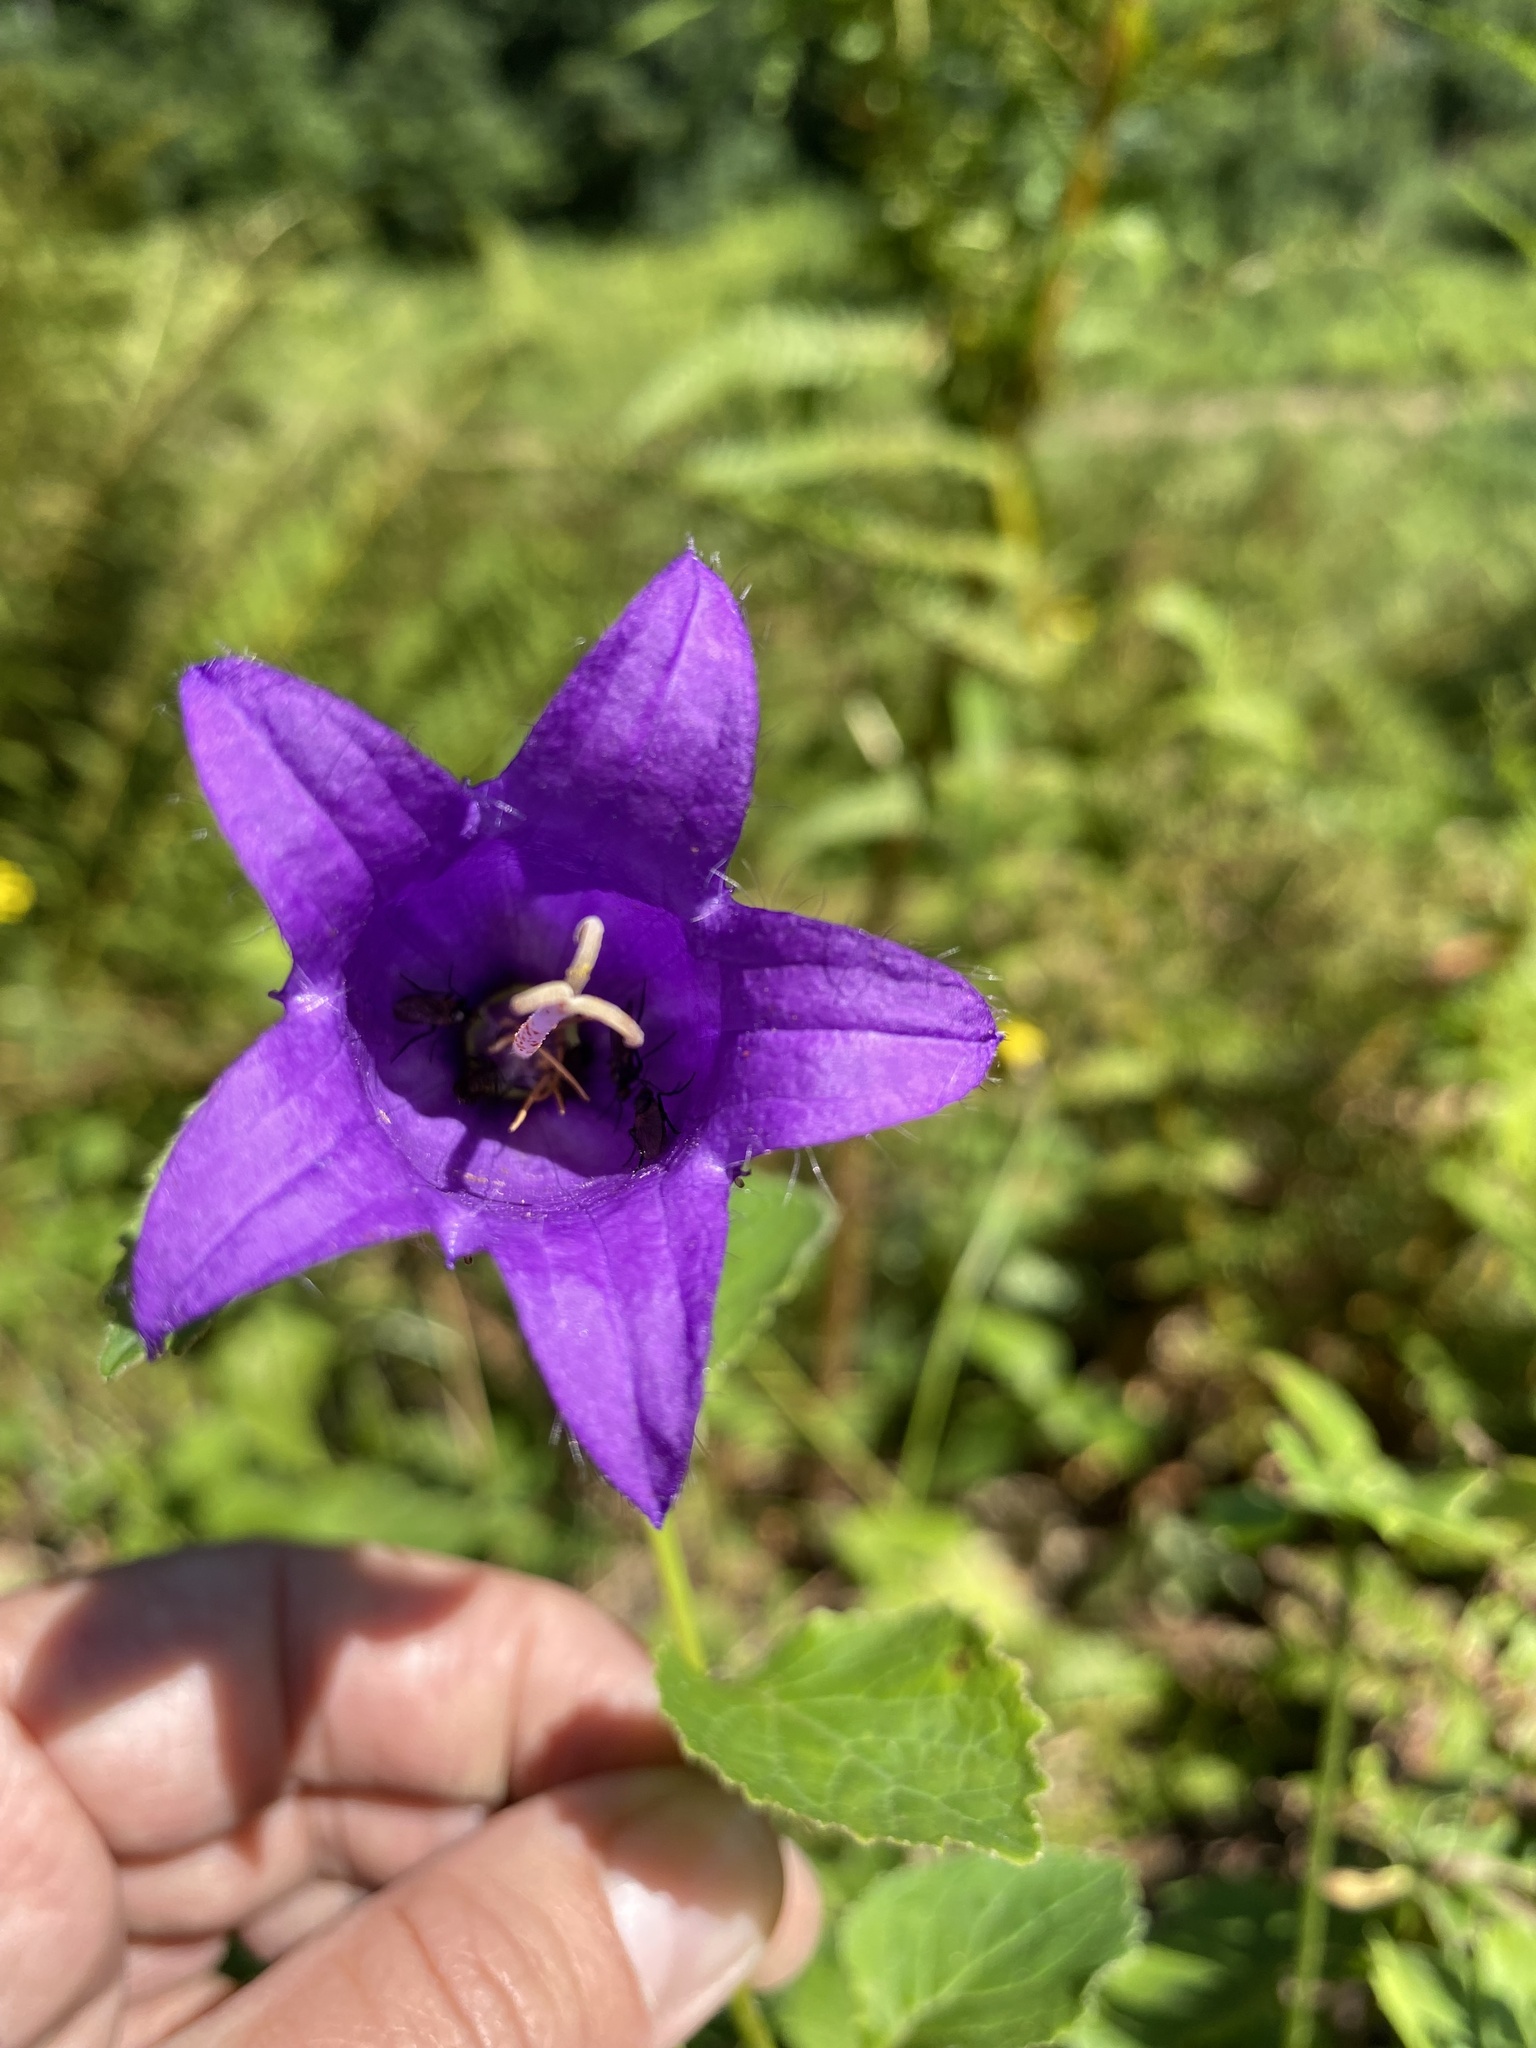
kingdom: Plantae
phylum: Tracheophyta
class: Magnoliopsida
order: Asterales
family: Campanulaceae
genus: Campanula
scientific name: Campanula latifolia
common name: Giant bellflower
